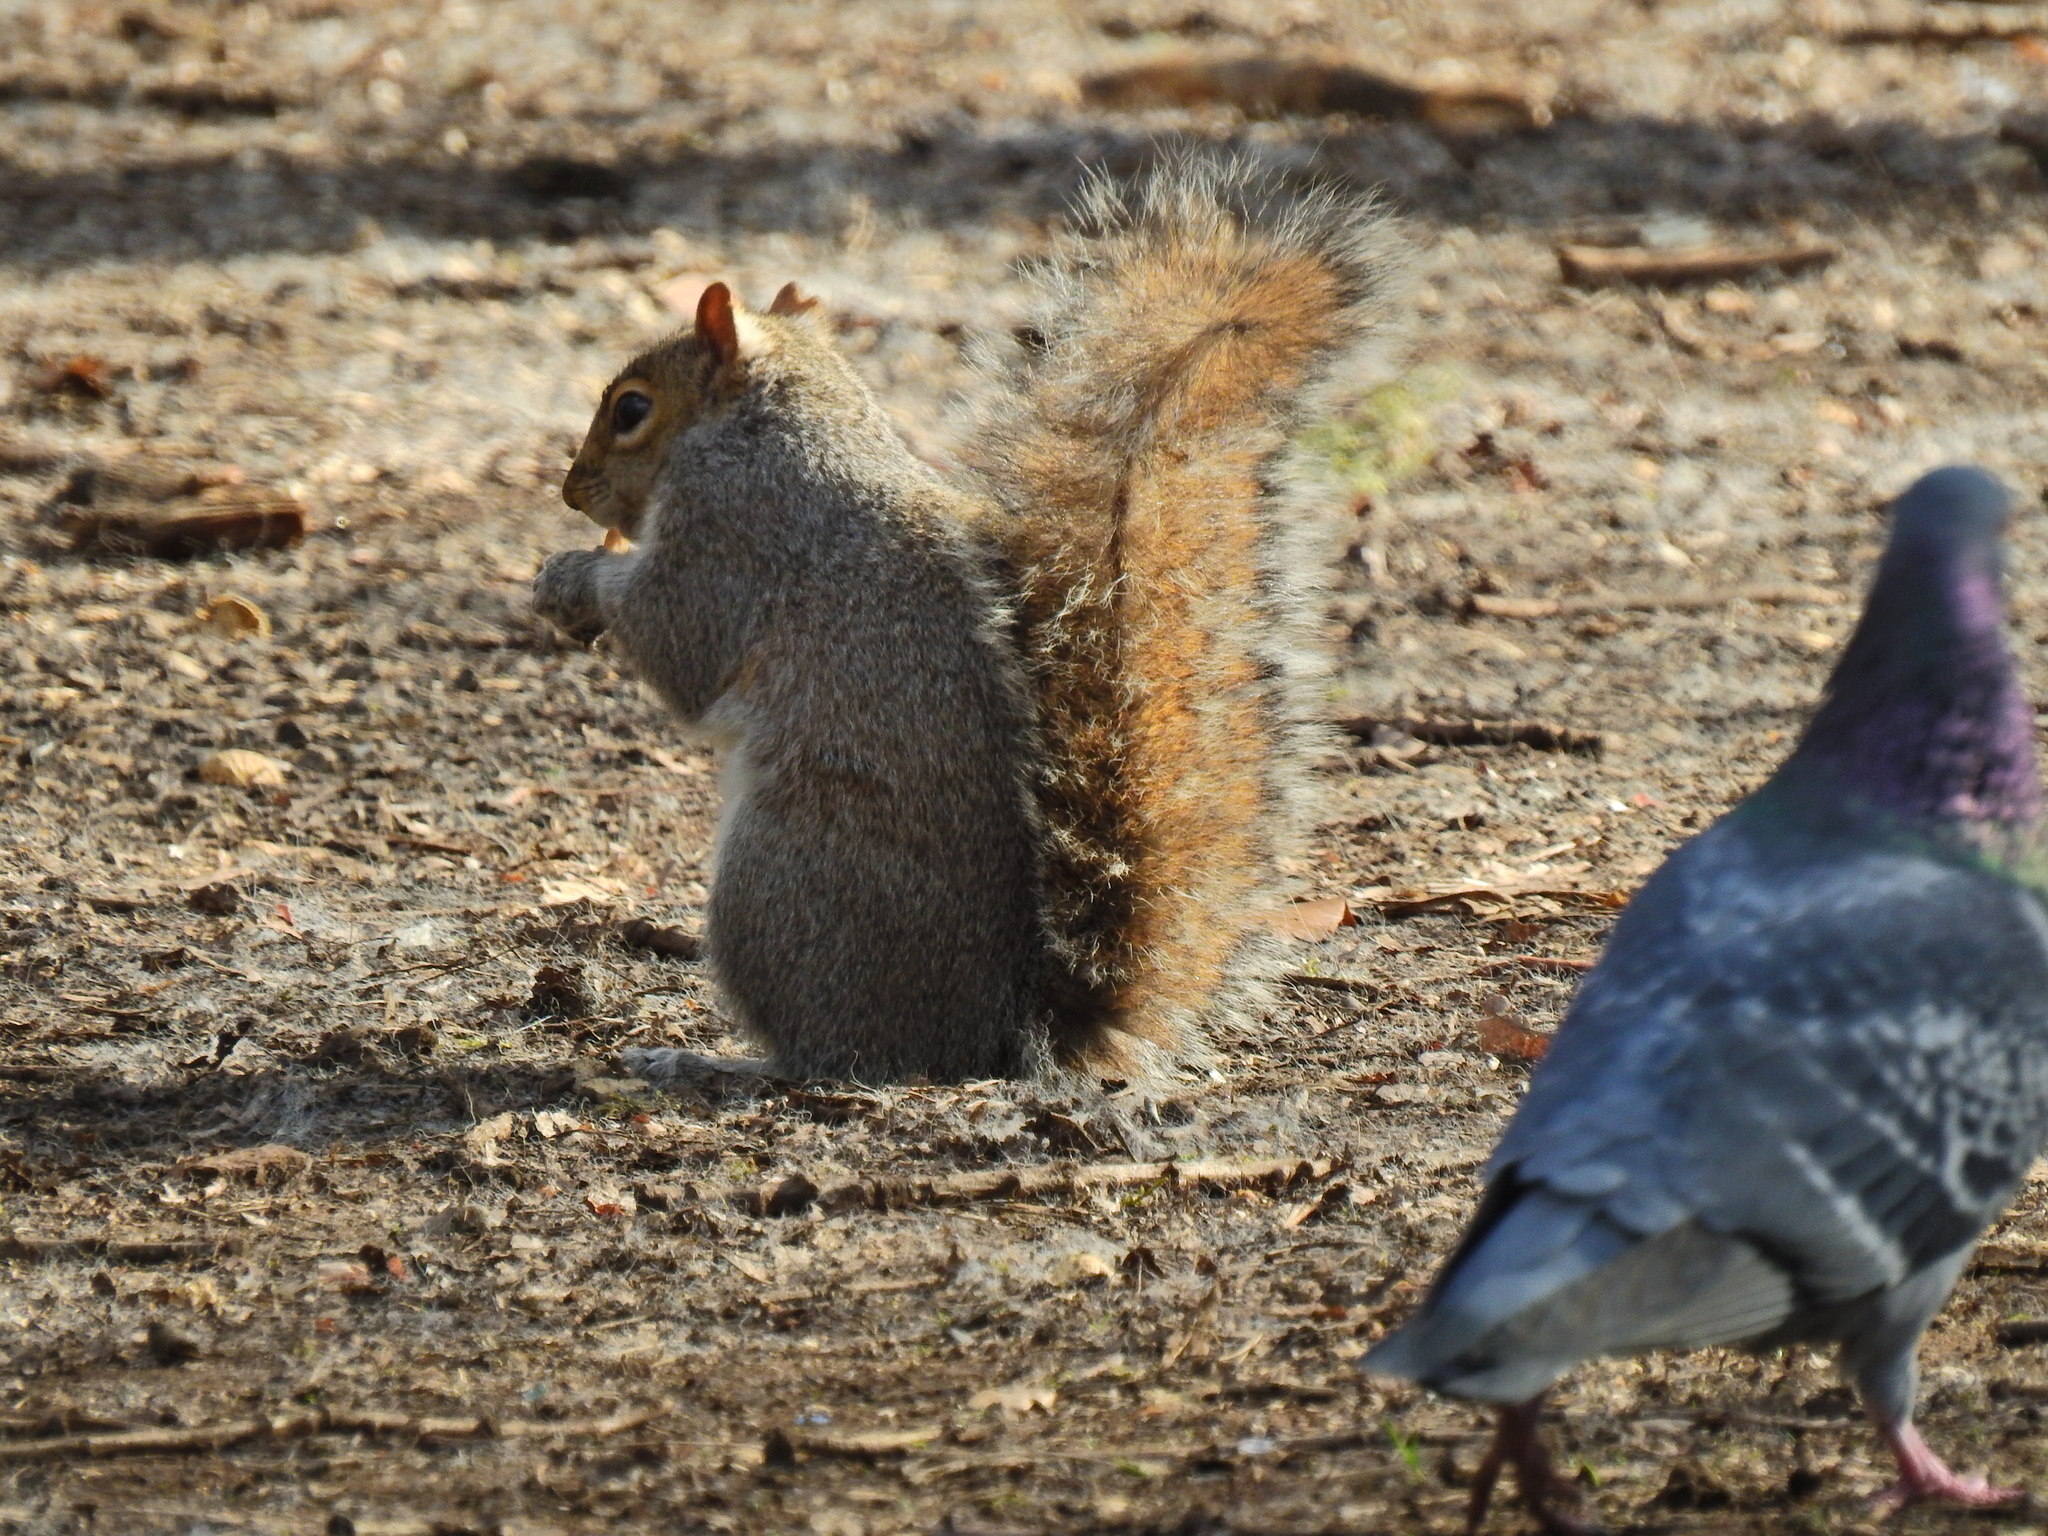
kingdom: Animalia
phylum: Chordata
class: Mammalia
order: Rodentia
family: Sciuridae
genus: Sciurus
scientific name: Sciurus carolinensis
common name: Eastern gray squirrel
